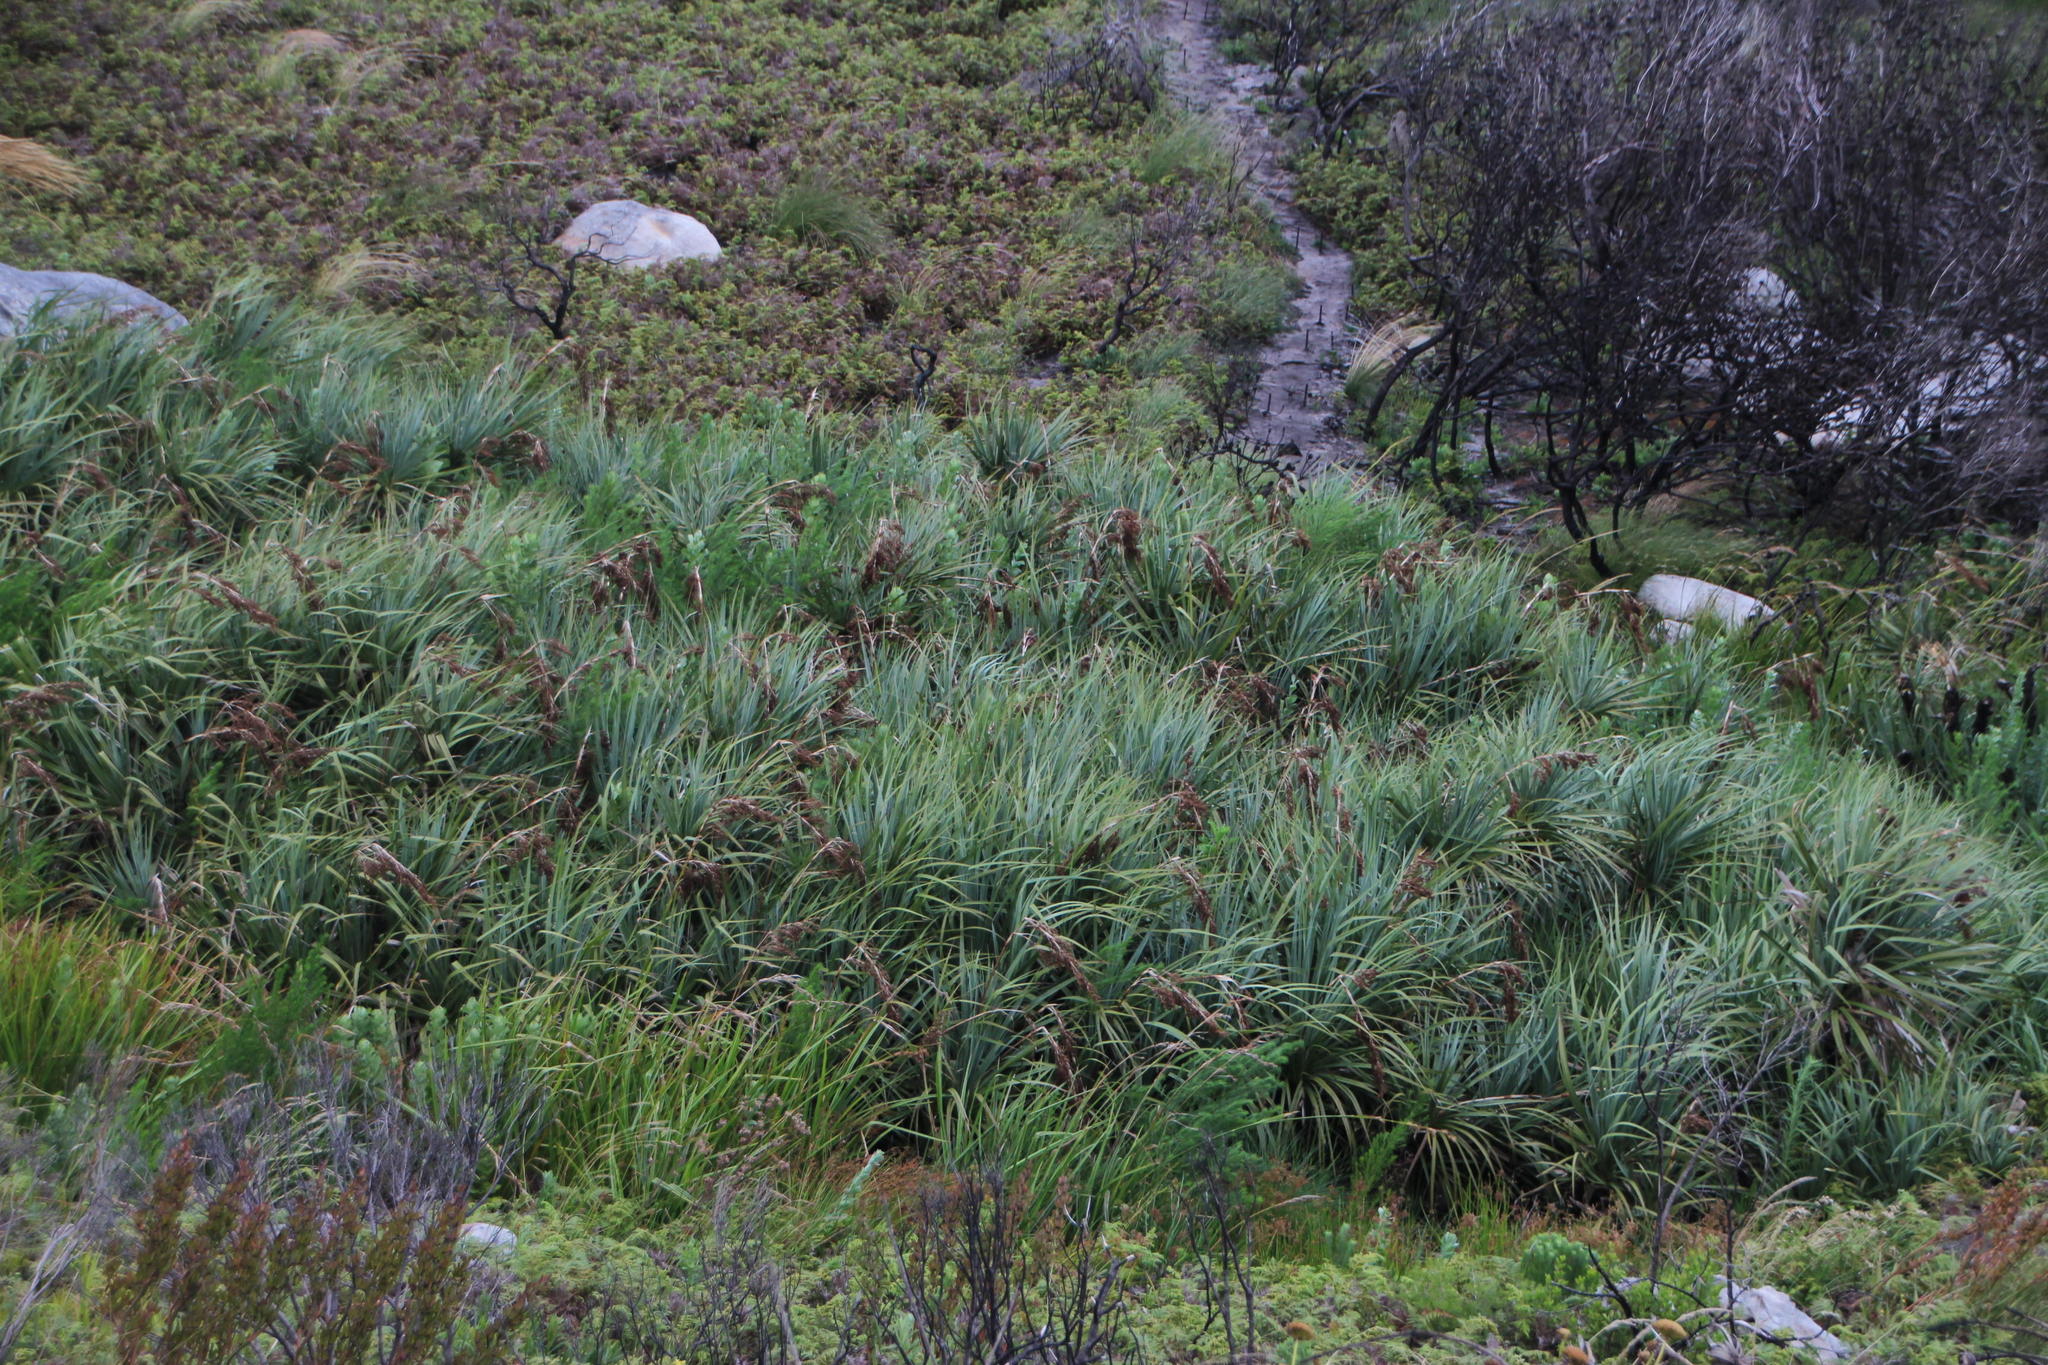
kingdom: Plantae
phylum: Tracheophyta
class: Liliopsida
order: Poales
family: Thurniaceae
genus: Prionium
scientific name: Prionium serratum
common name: Palmiet
